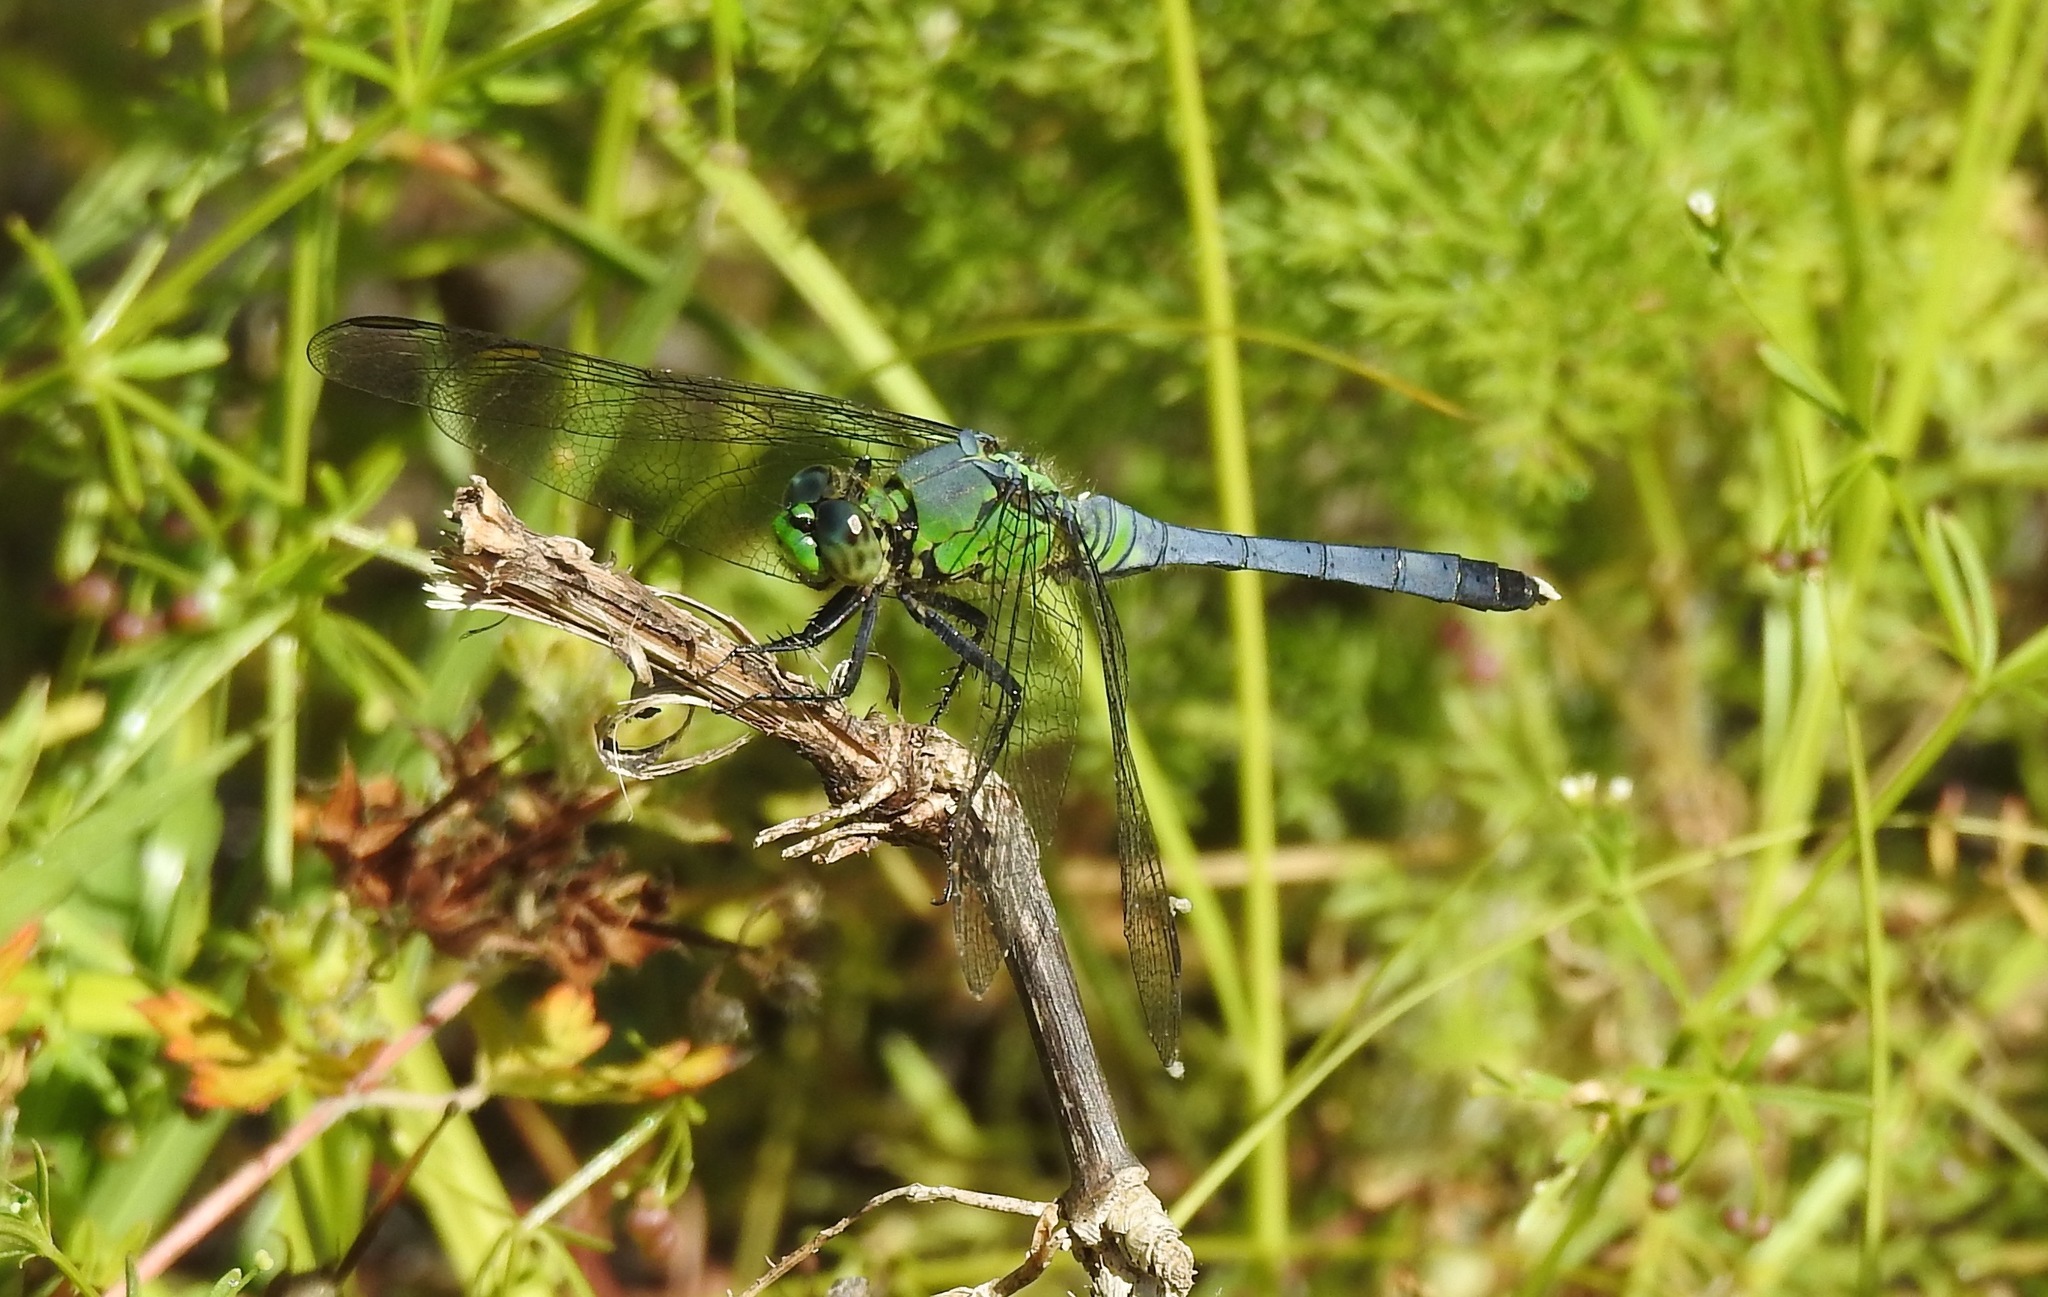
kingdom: Animalia
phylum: Arthropoda
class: Insecta
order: Odonata
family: Libellulidae
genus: Erythemis
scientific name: Erythemis simplicicollis
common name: Eastern pondhawk
